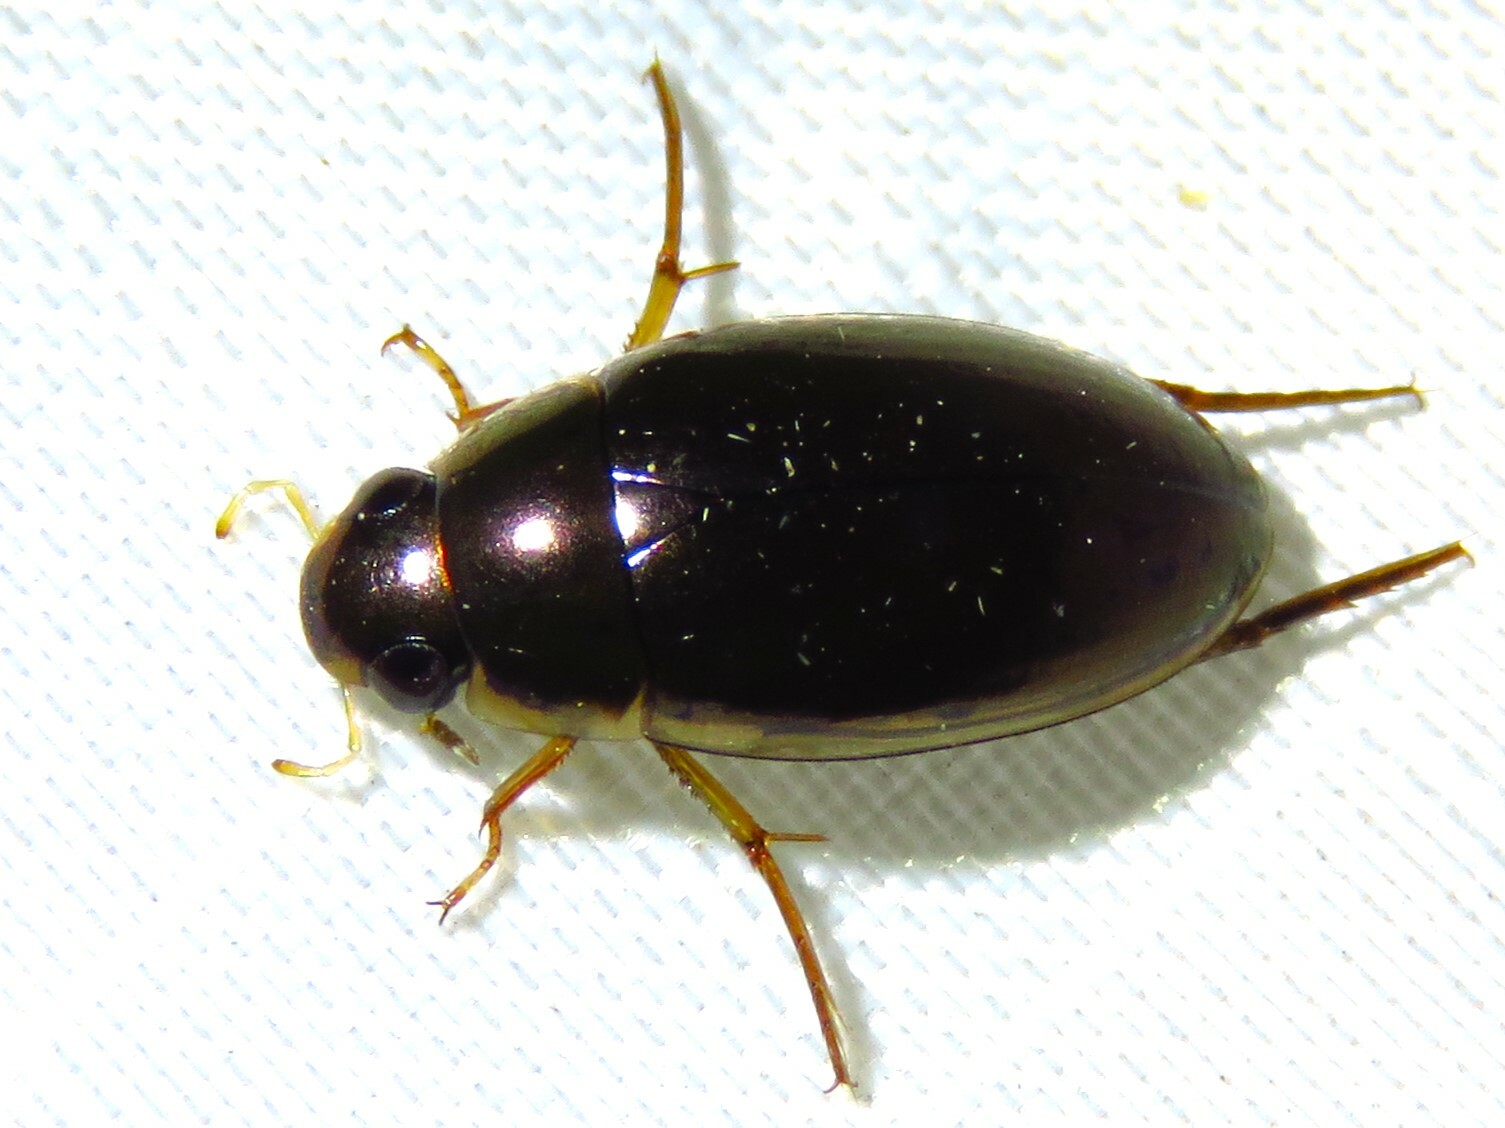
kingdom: Animalia
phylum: Arthropoda
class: Insecta
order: Coleoptera
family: Hydrophilidae
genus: Tropisternus
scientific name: Tropisternus lateralis
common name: Lateral-banded water scavenger beetle
